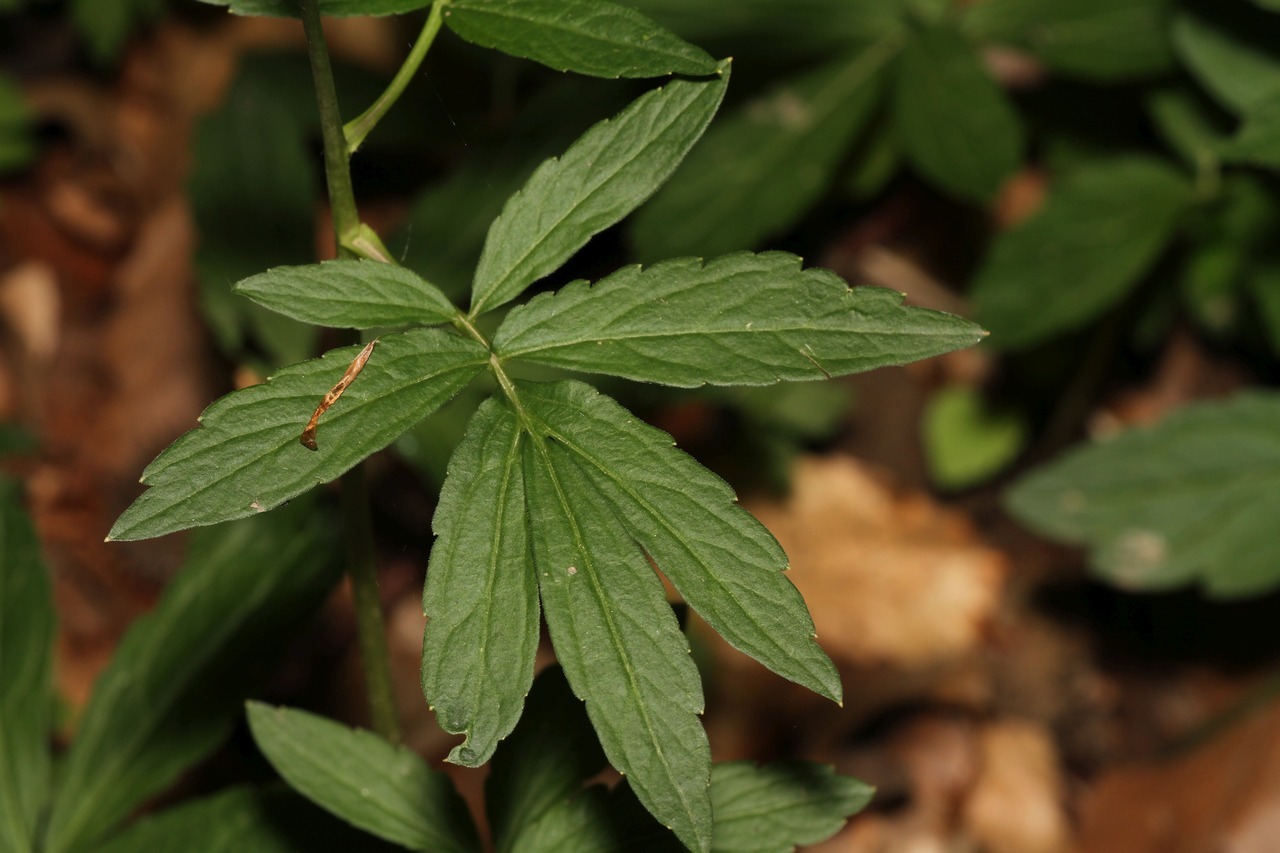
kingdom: Plantae
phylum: Tracheophyta
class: Magnoliopsida
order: Brassicales
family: Brassicaceae
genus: Cardamine
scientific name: Cardamine bulbifera
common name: Coralroot bittercress
